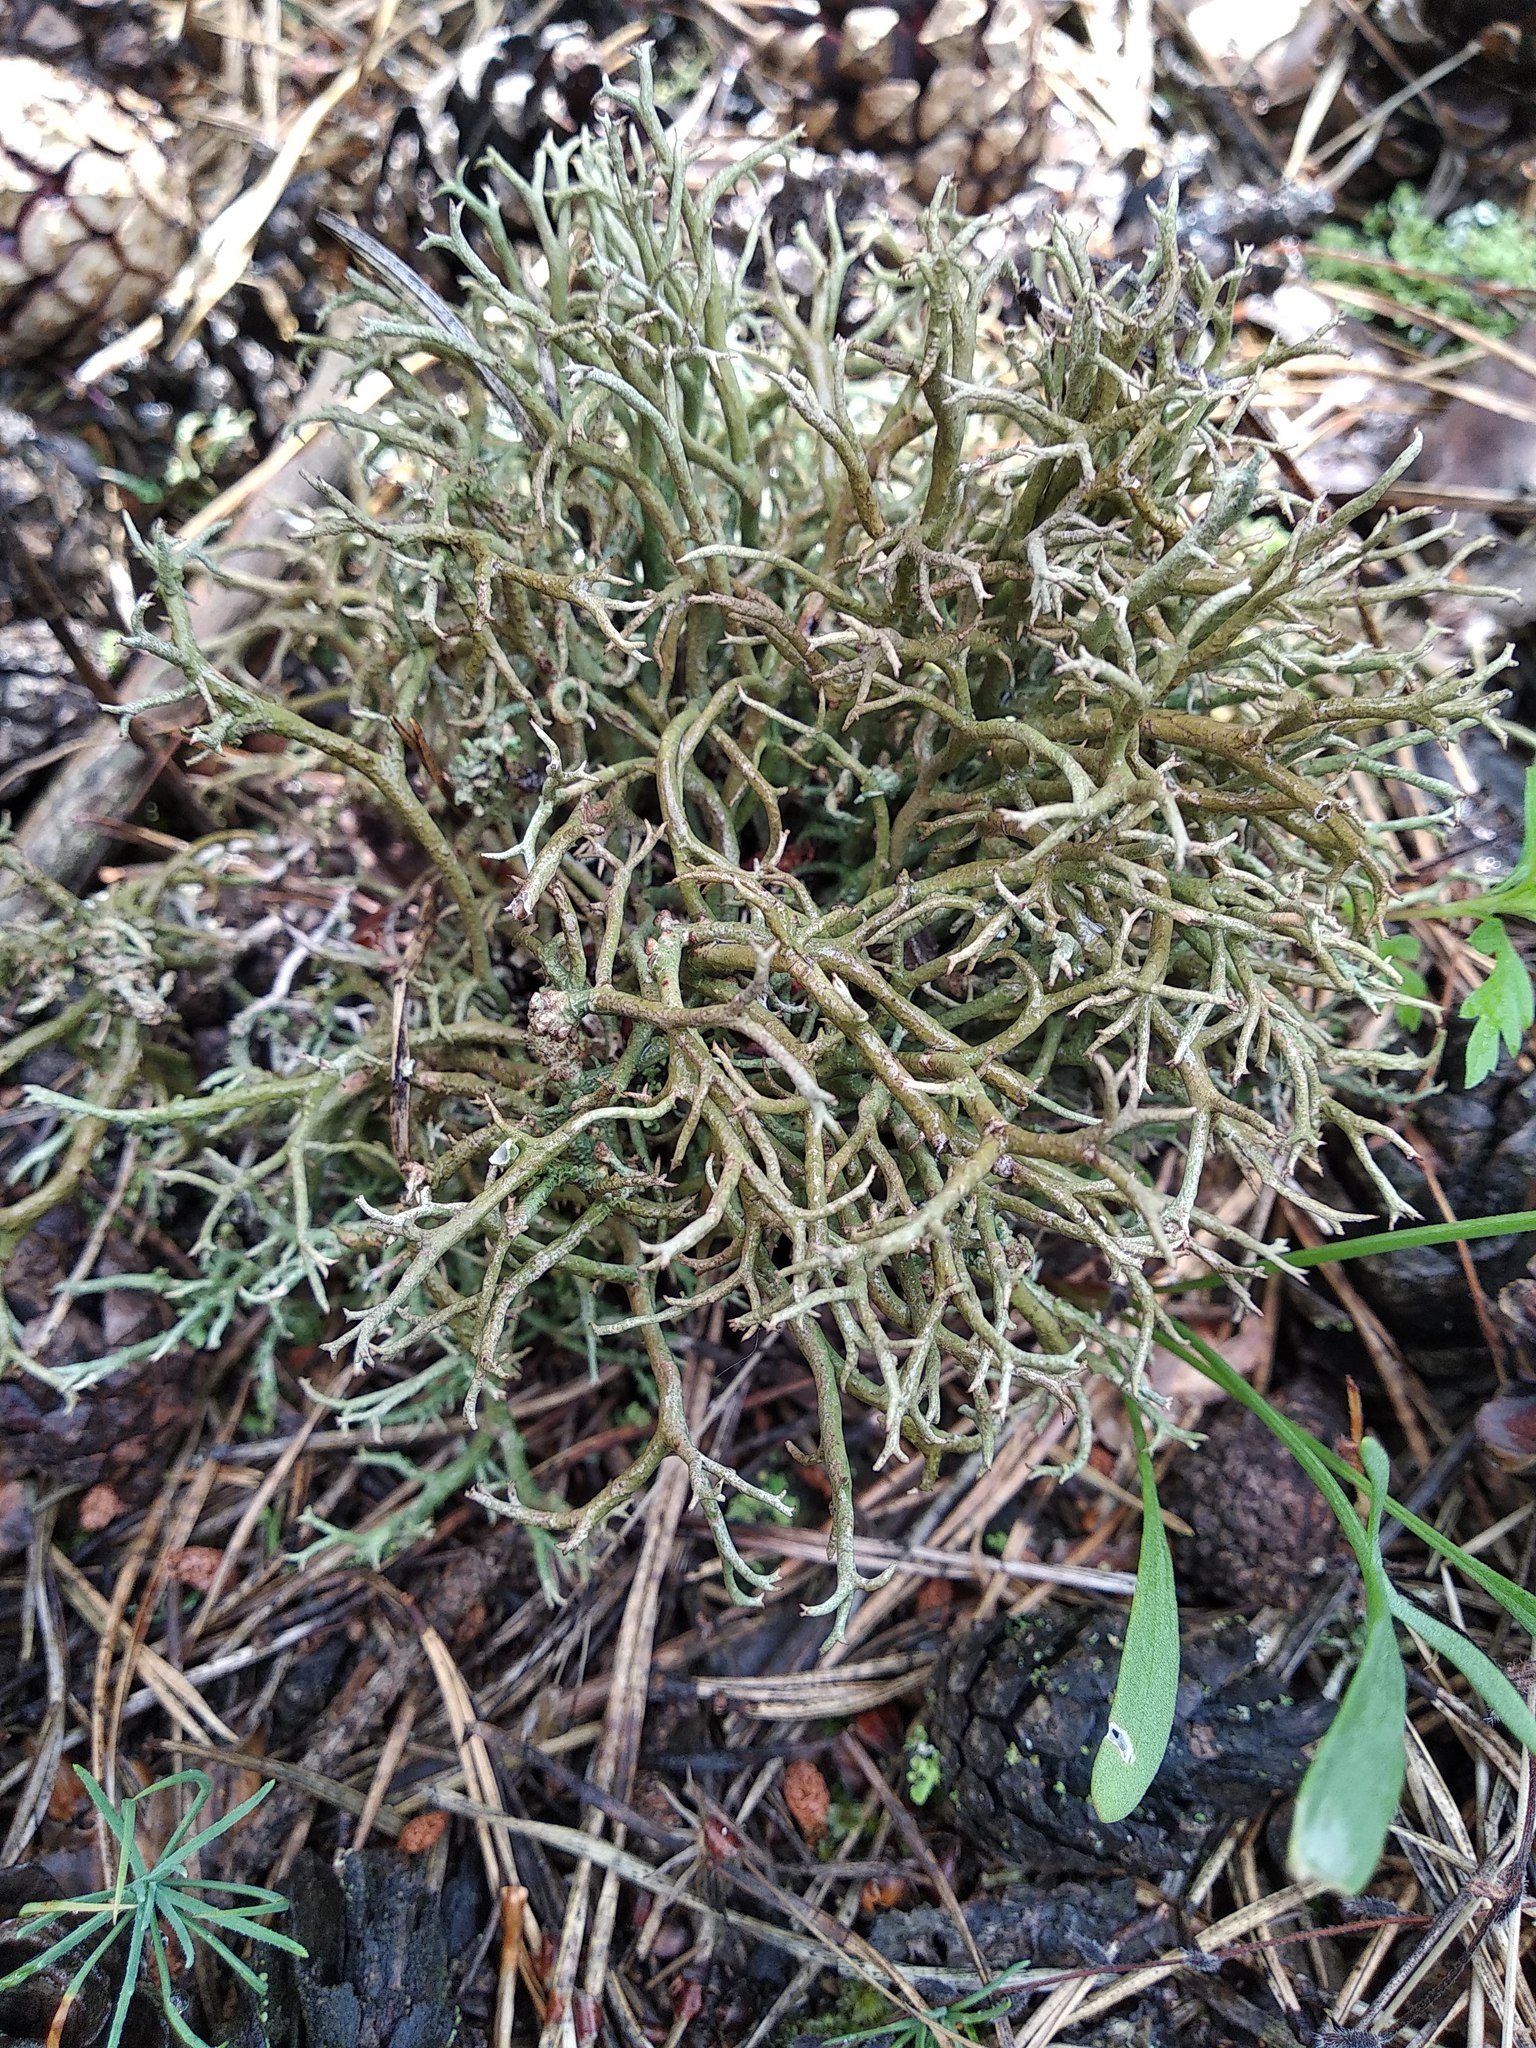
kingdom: Fungi
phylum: Ascomycota
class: Lecanoromycetes
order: Lecanorales
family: Cladoniaceae
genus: Cladonia
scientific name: Cladonia furcata
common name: Many-forked cladonia
